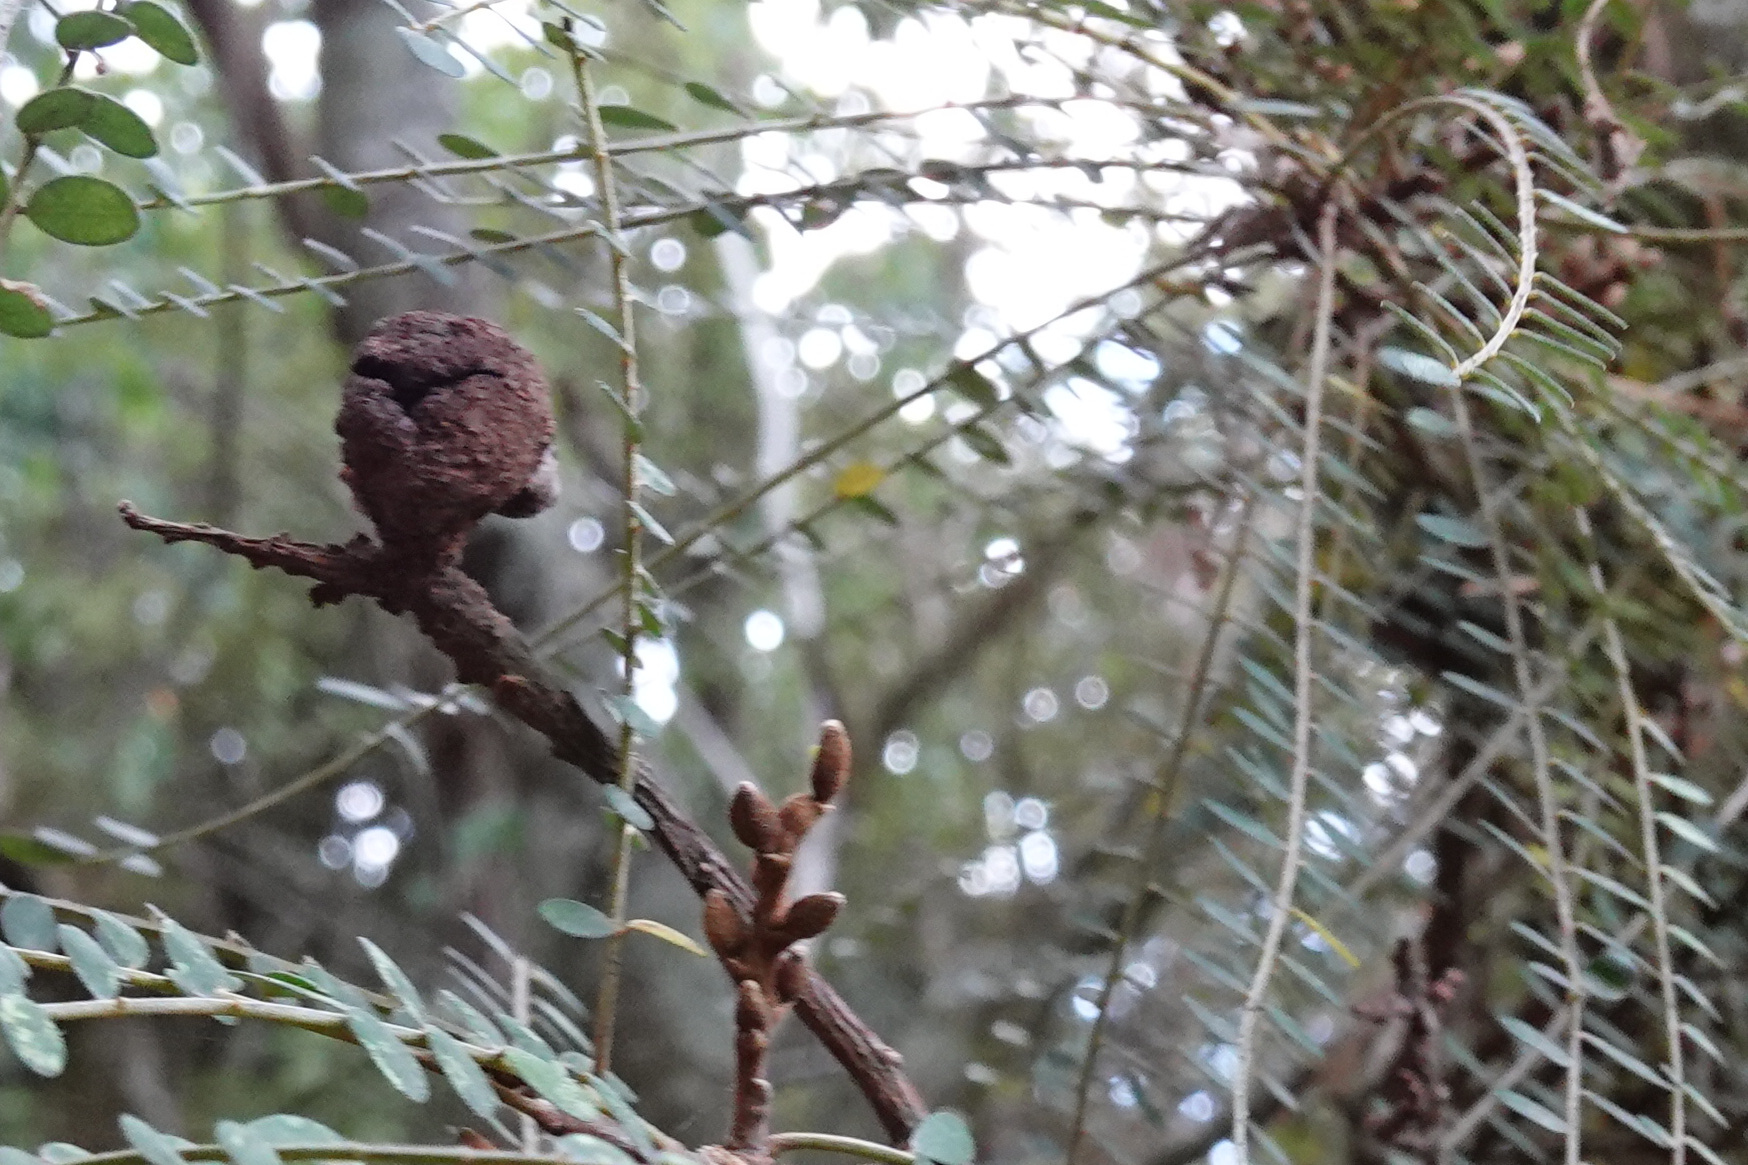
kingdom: Fungi
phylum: Basidiomycota
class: Pucciniomycetes
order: Pucciniales
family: Pucciniaceae
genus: Uromyces
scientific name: Uromyces edwardsiae
